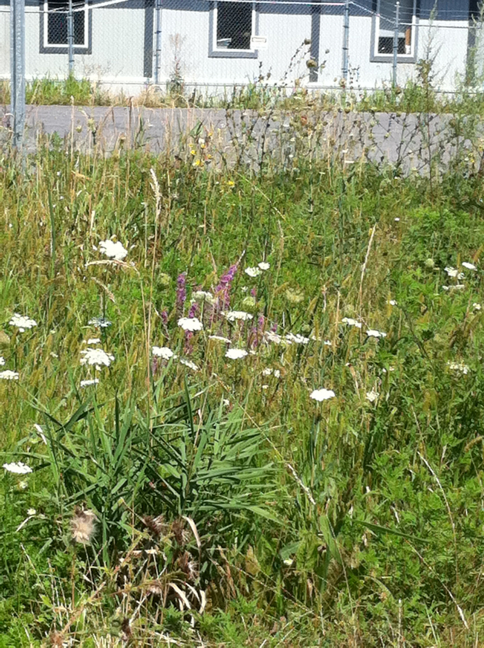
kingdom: Plantae
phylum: Tracheophyta
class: Magnoliopsida
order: Myrtales
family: Lythraceae
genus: Lythrum
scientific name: Lythrum salicaria
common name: Purple loosestrife
